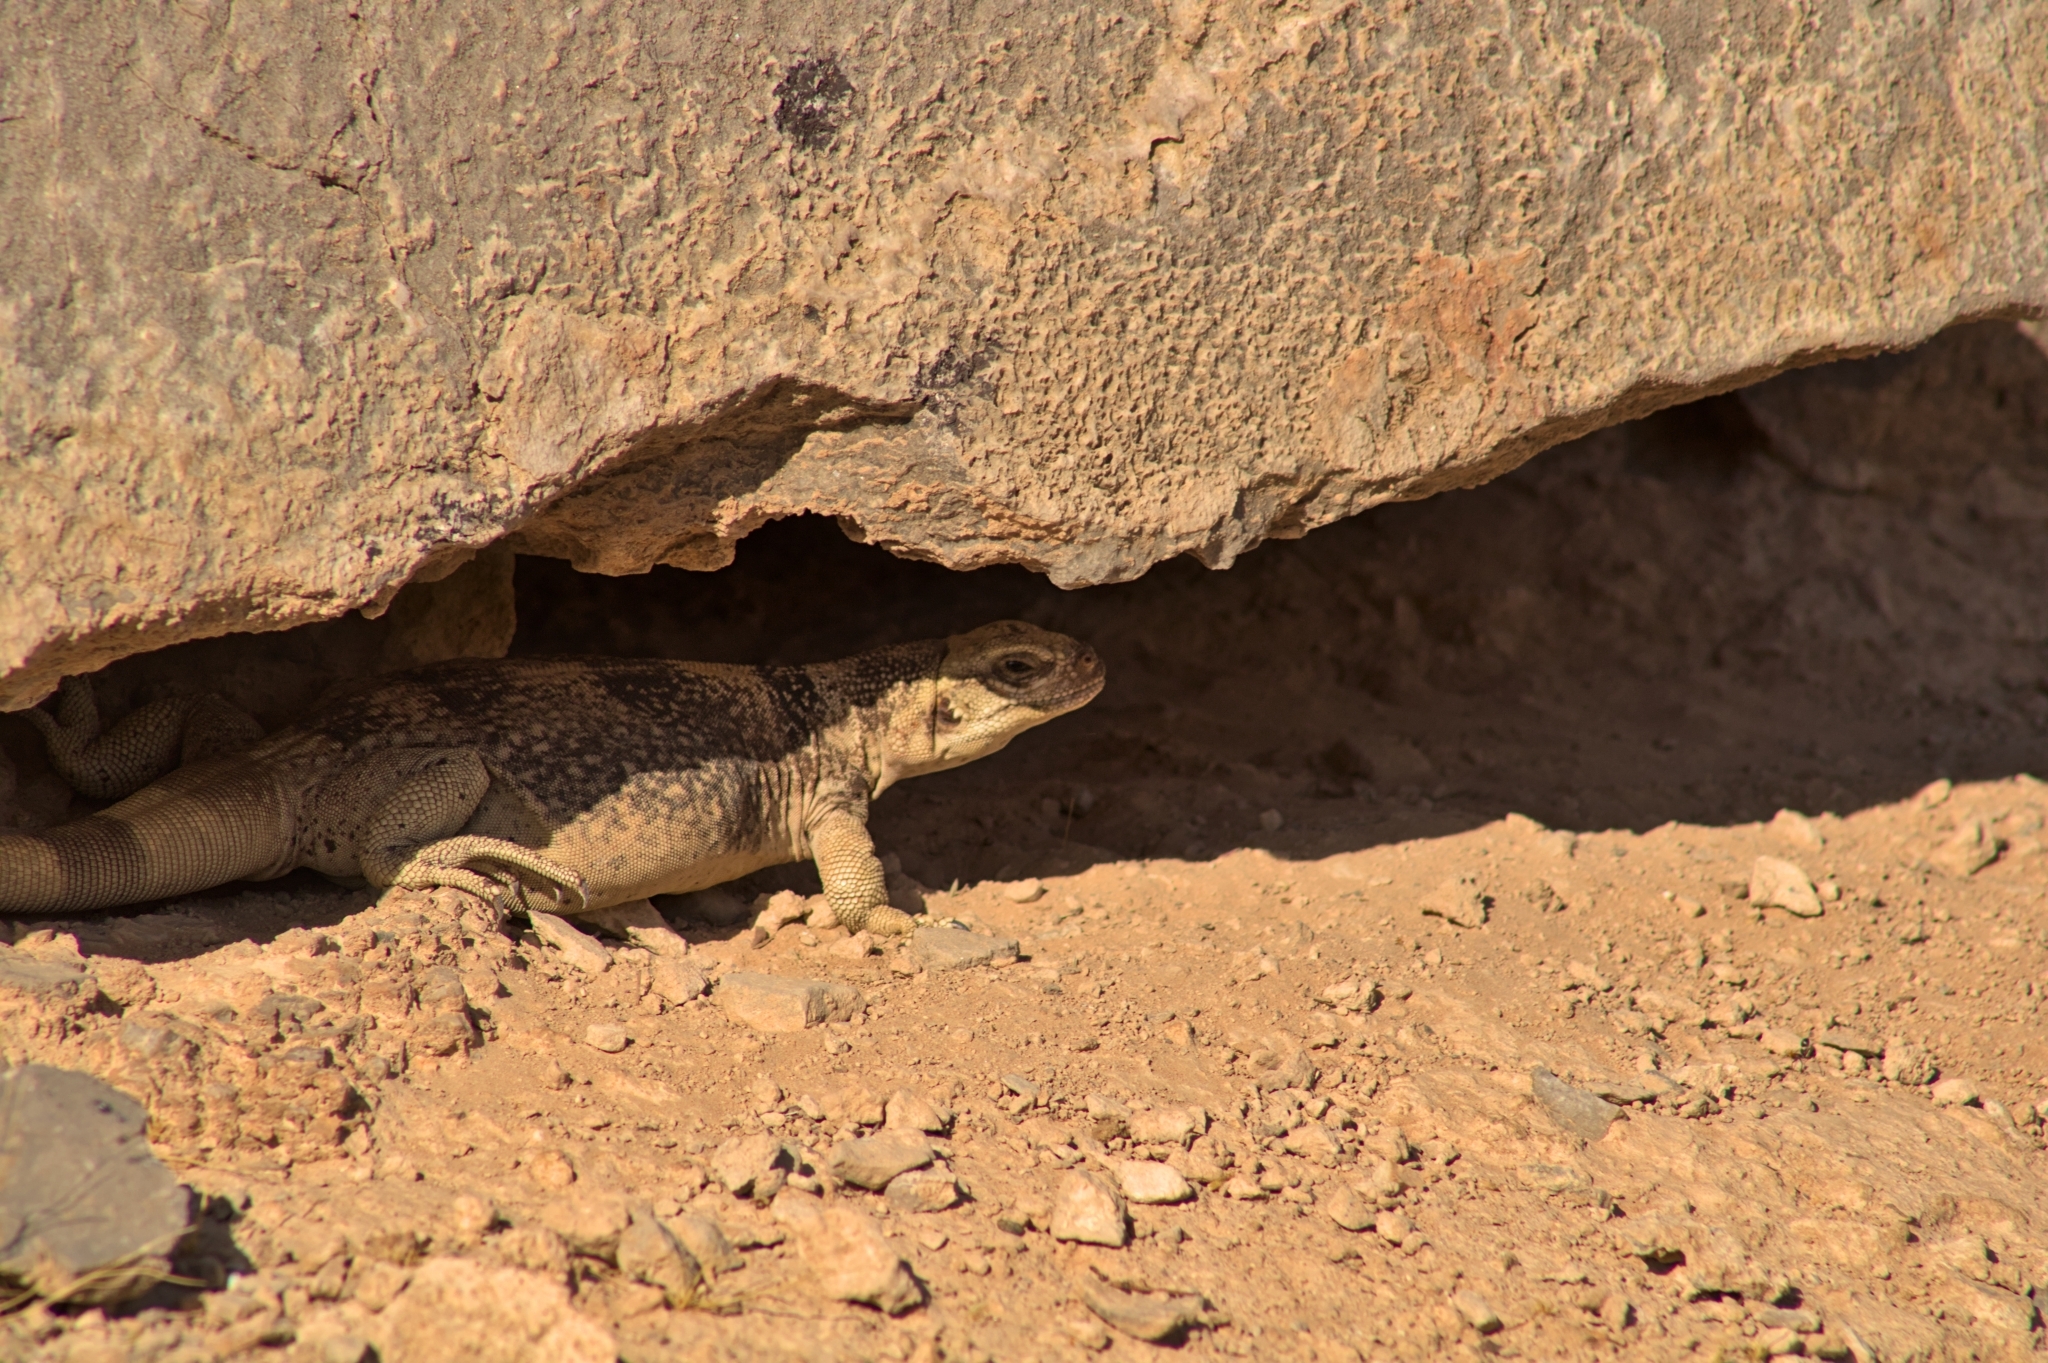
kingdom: Animalia
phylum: Chordata
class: Squamata
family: Iguanidae
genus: Sauromalus
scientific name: Sauromalus ater
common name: Northern chuckwalla
